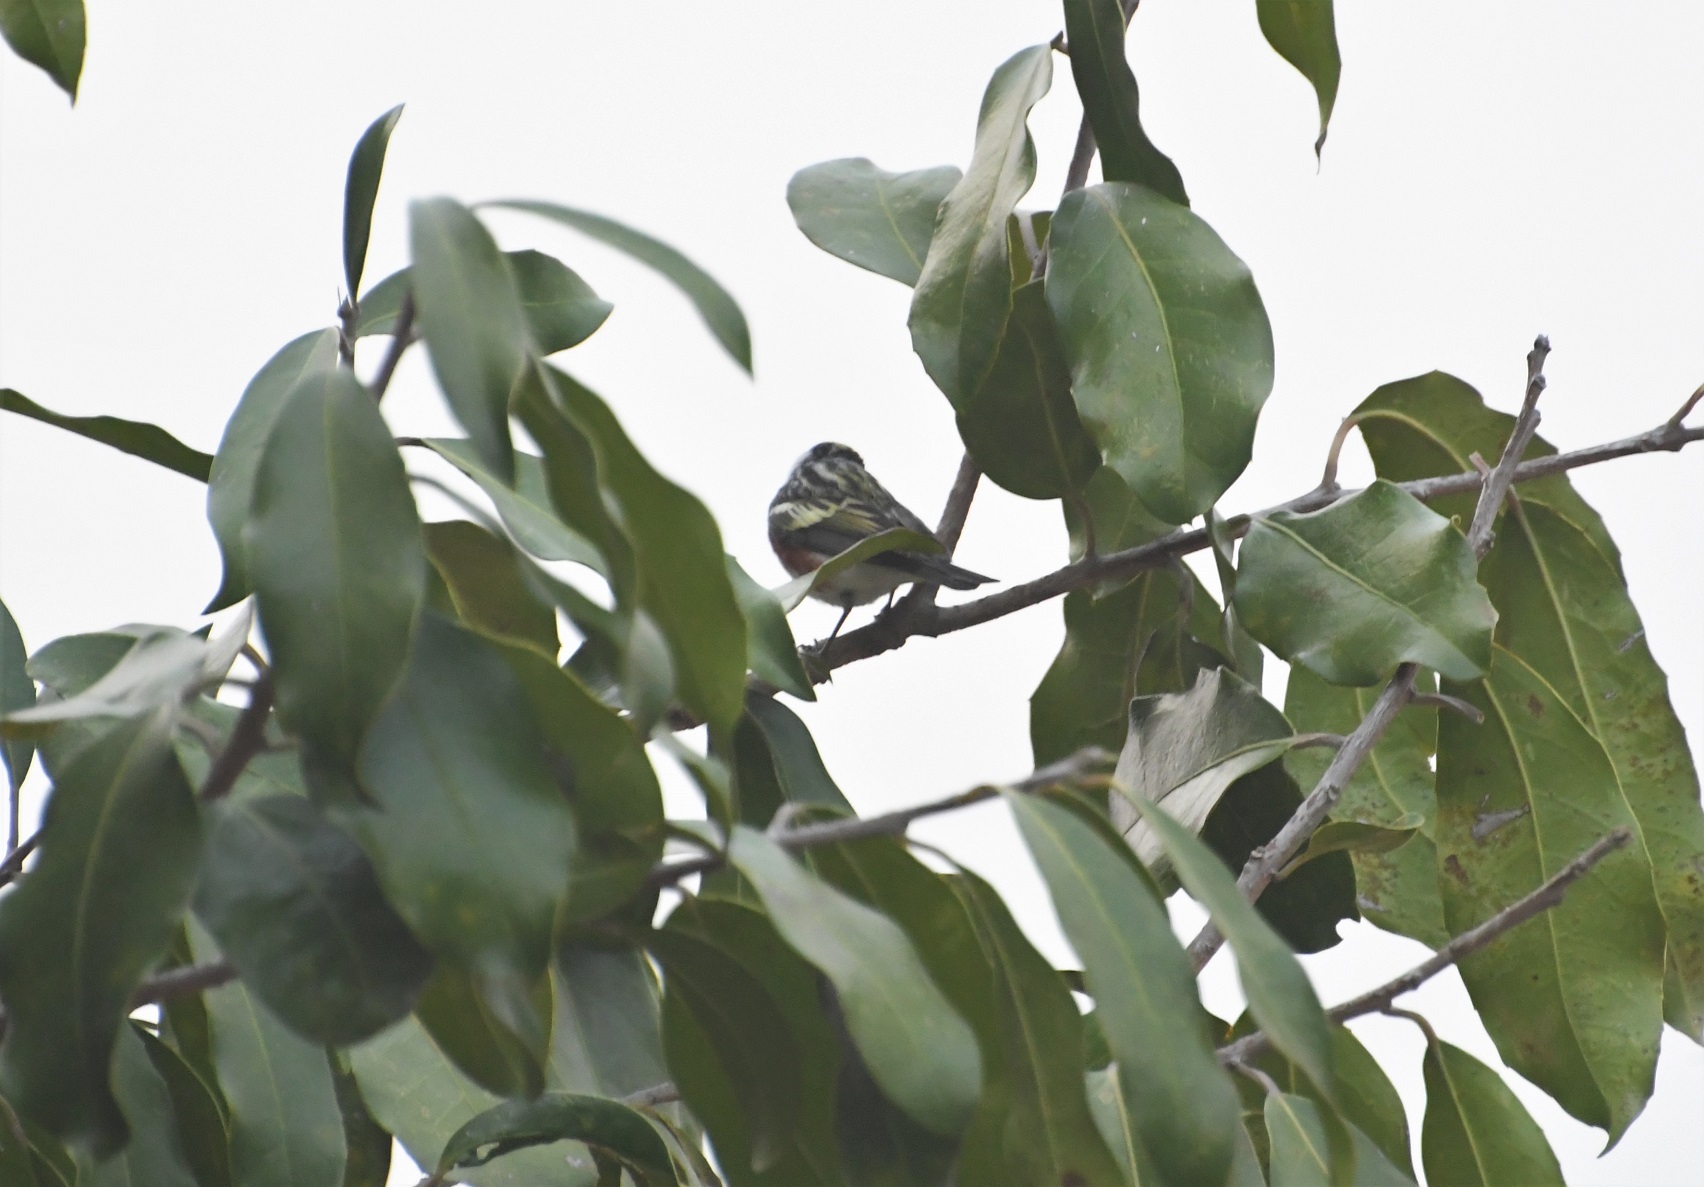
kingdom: Animalia
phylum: Chordata
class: Aves
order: Passeriformes
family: Parulidae
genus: Setophaga
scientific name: Setophaga pensylvanica
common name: Chestnut-sided warbler
